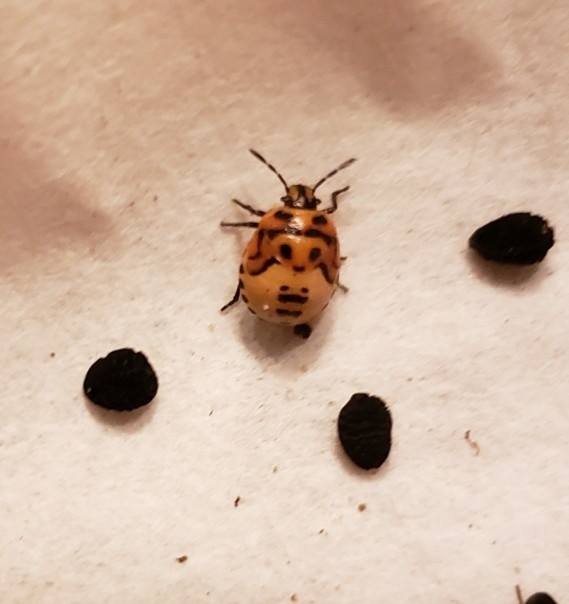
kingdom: Animalia
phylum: Arthropoda
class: Insecta
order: Hemiptera
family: Pentatomidae
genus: Cosmopepla
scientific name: Cosmopepla lintneriana
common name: Twice-stabbed stink bug
